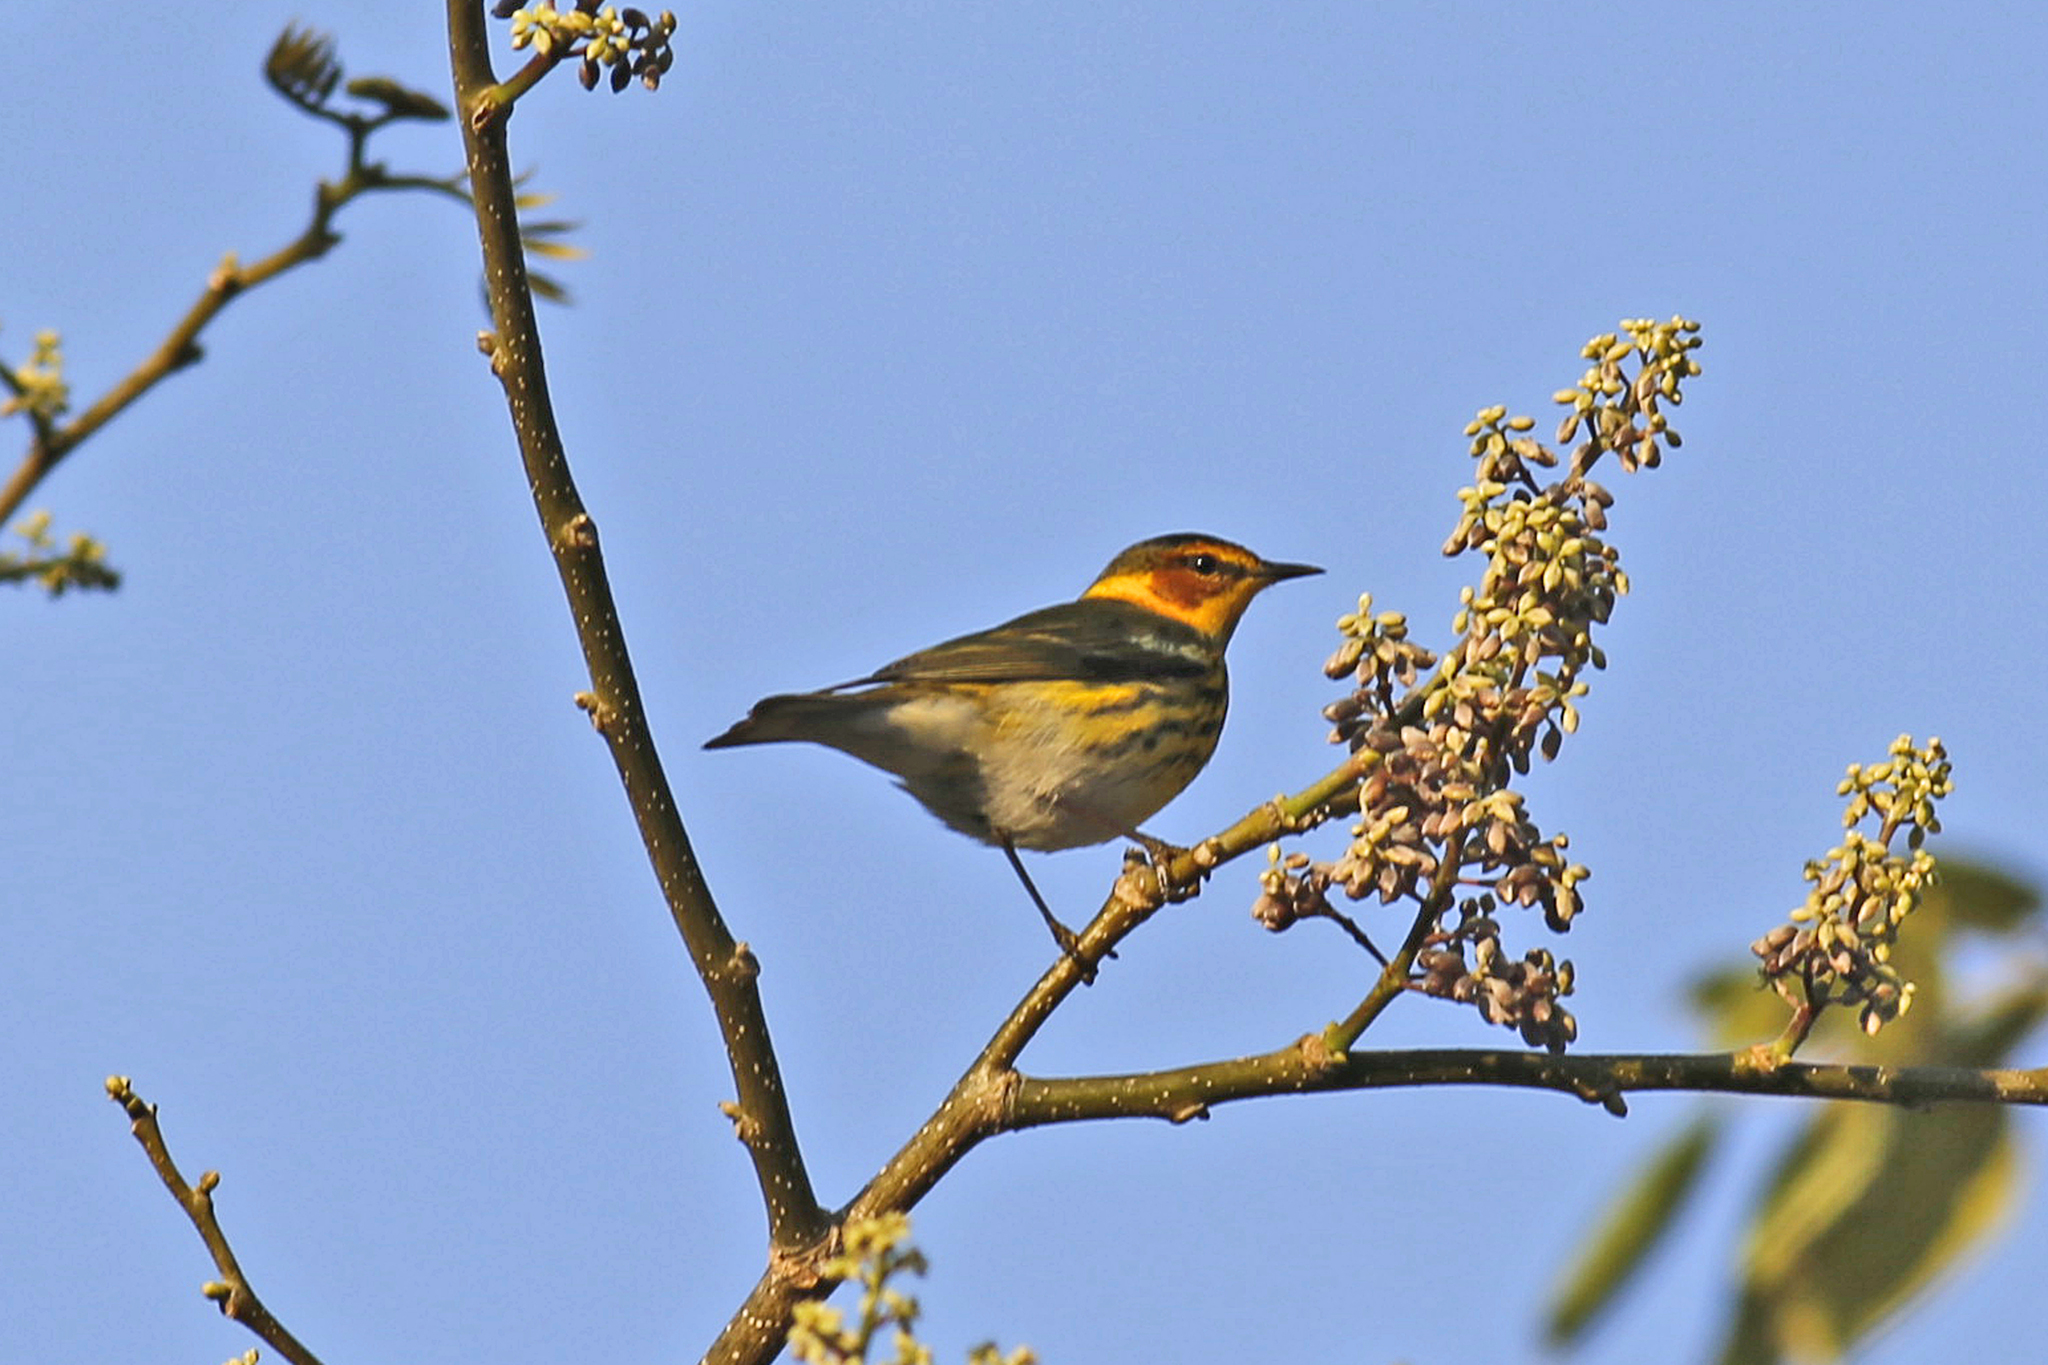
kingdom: Animalia
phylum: Chordata
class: Aves
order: Passeriformes
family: Parulidae
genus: Setophaga
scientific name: Setophaga tigrina
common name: Cape may warbler
